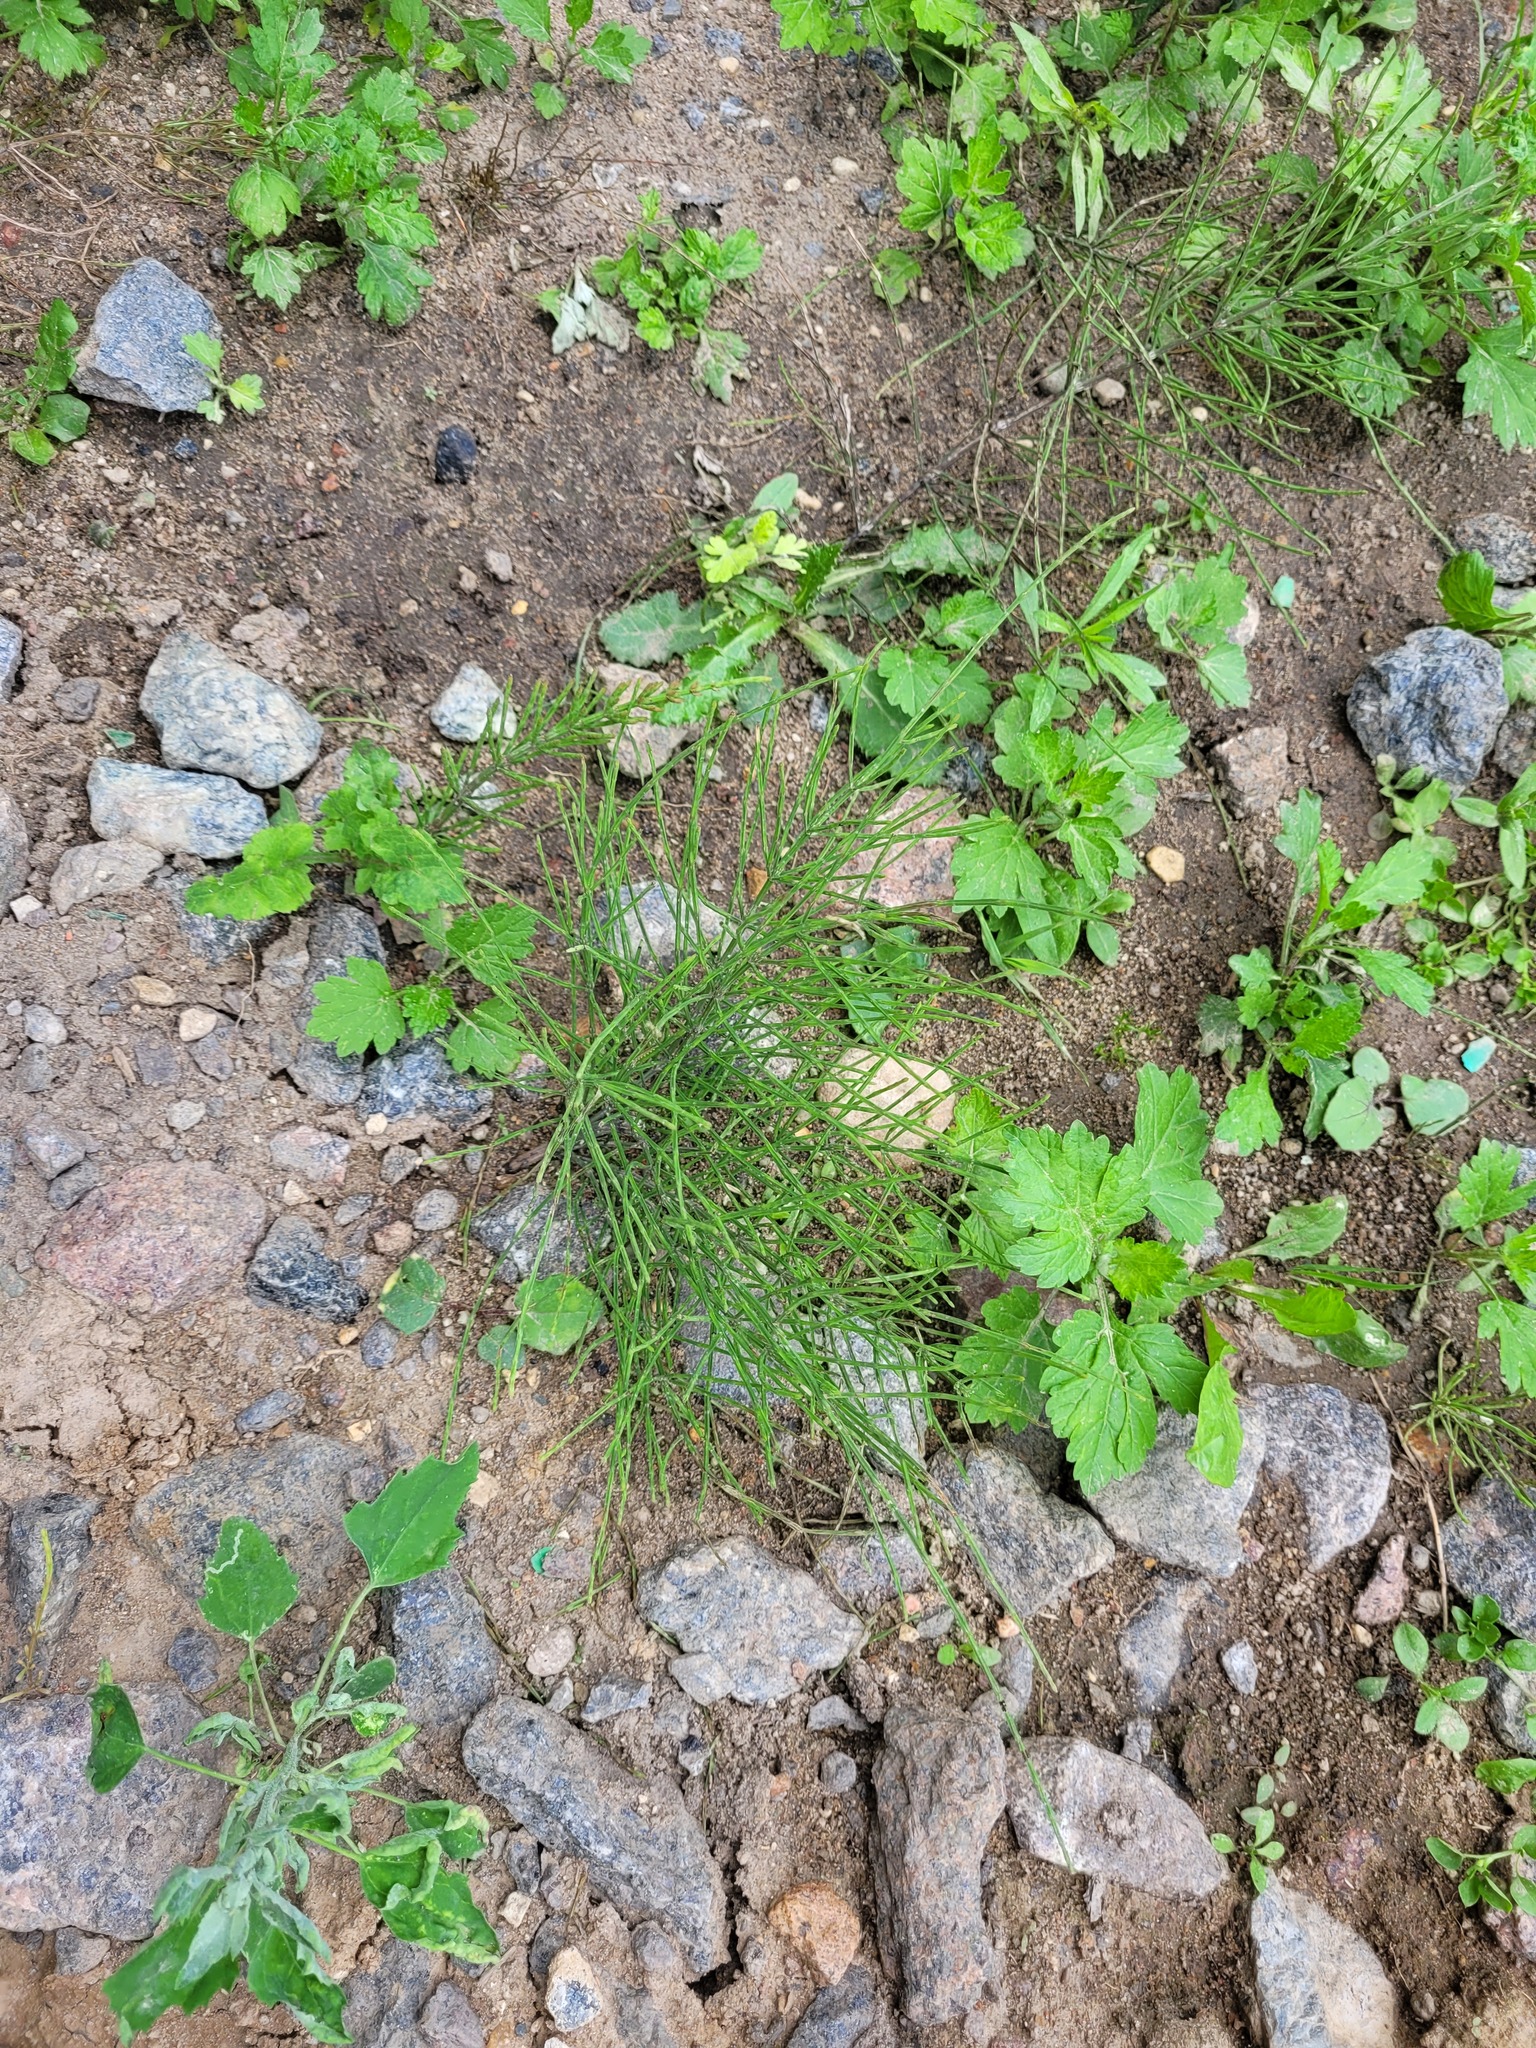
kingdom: Plantae
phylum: Tracheophyta
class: Polypodiopsida
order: Equisetales
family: Equisetaceae
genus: Equisetum
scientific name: Equisetum arvense
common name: Field horsetail
